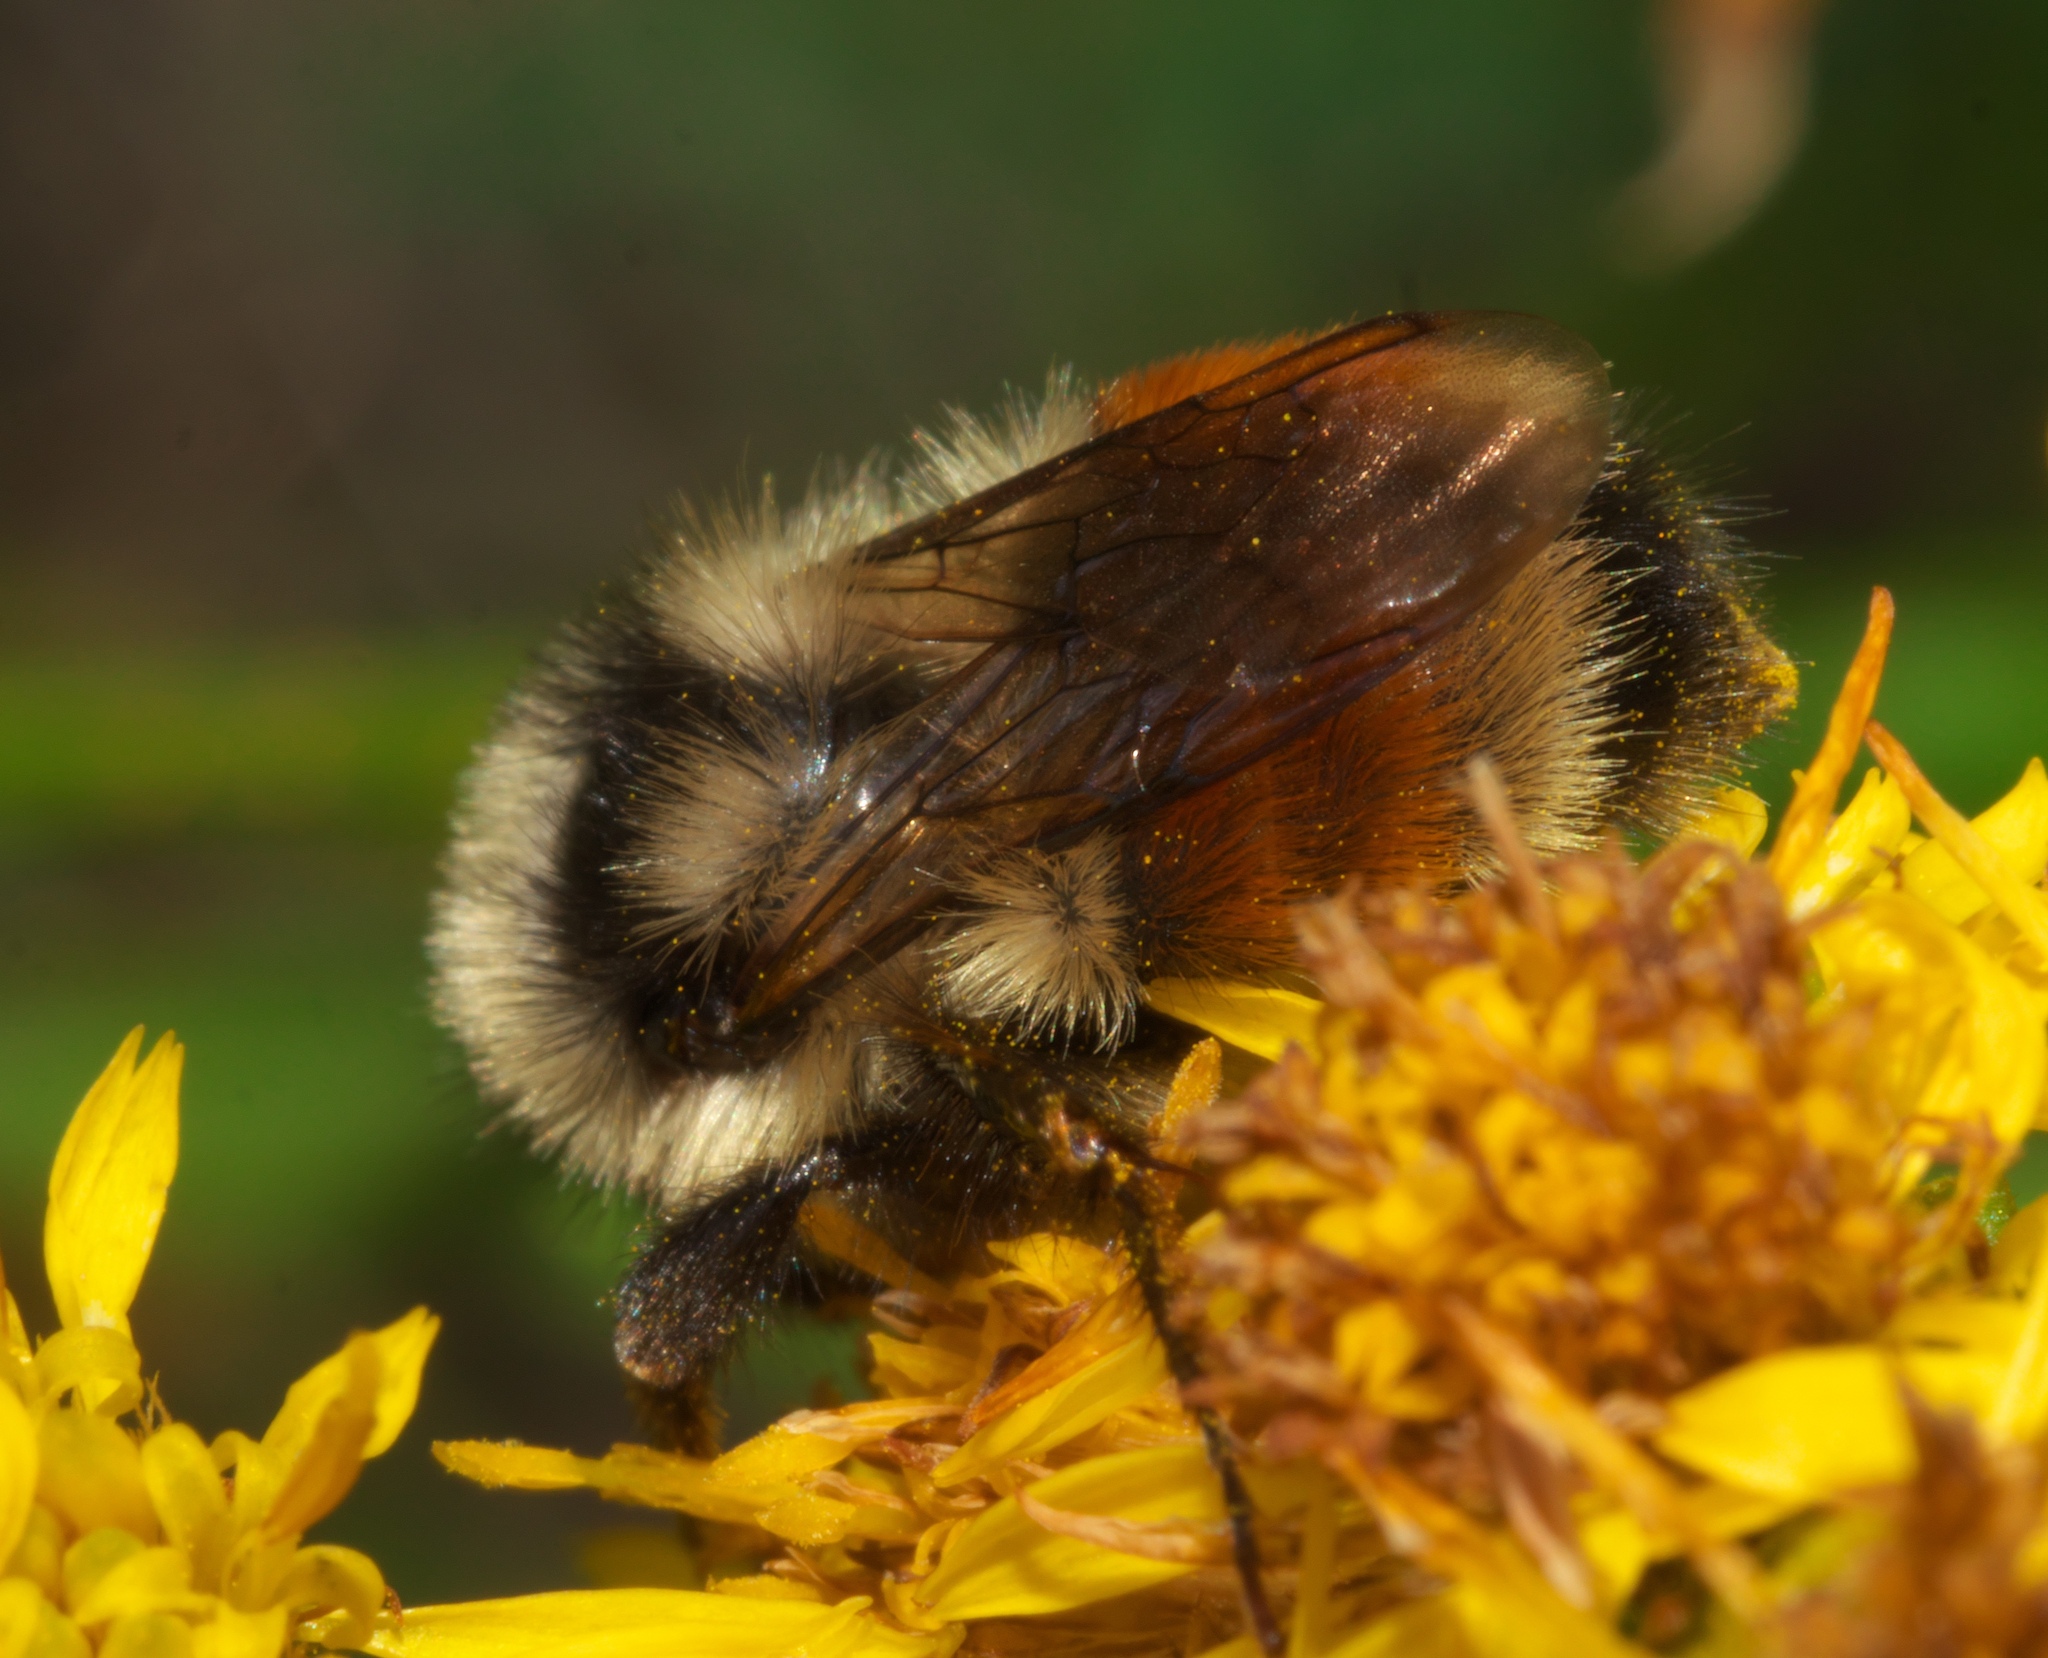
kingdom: Animalia
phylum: Arthropoda
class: Insecta
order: Hymenoptera
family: Apidae
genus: Bombus
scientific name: Bombus bifarius
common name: Two form bumble bee
